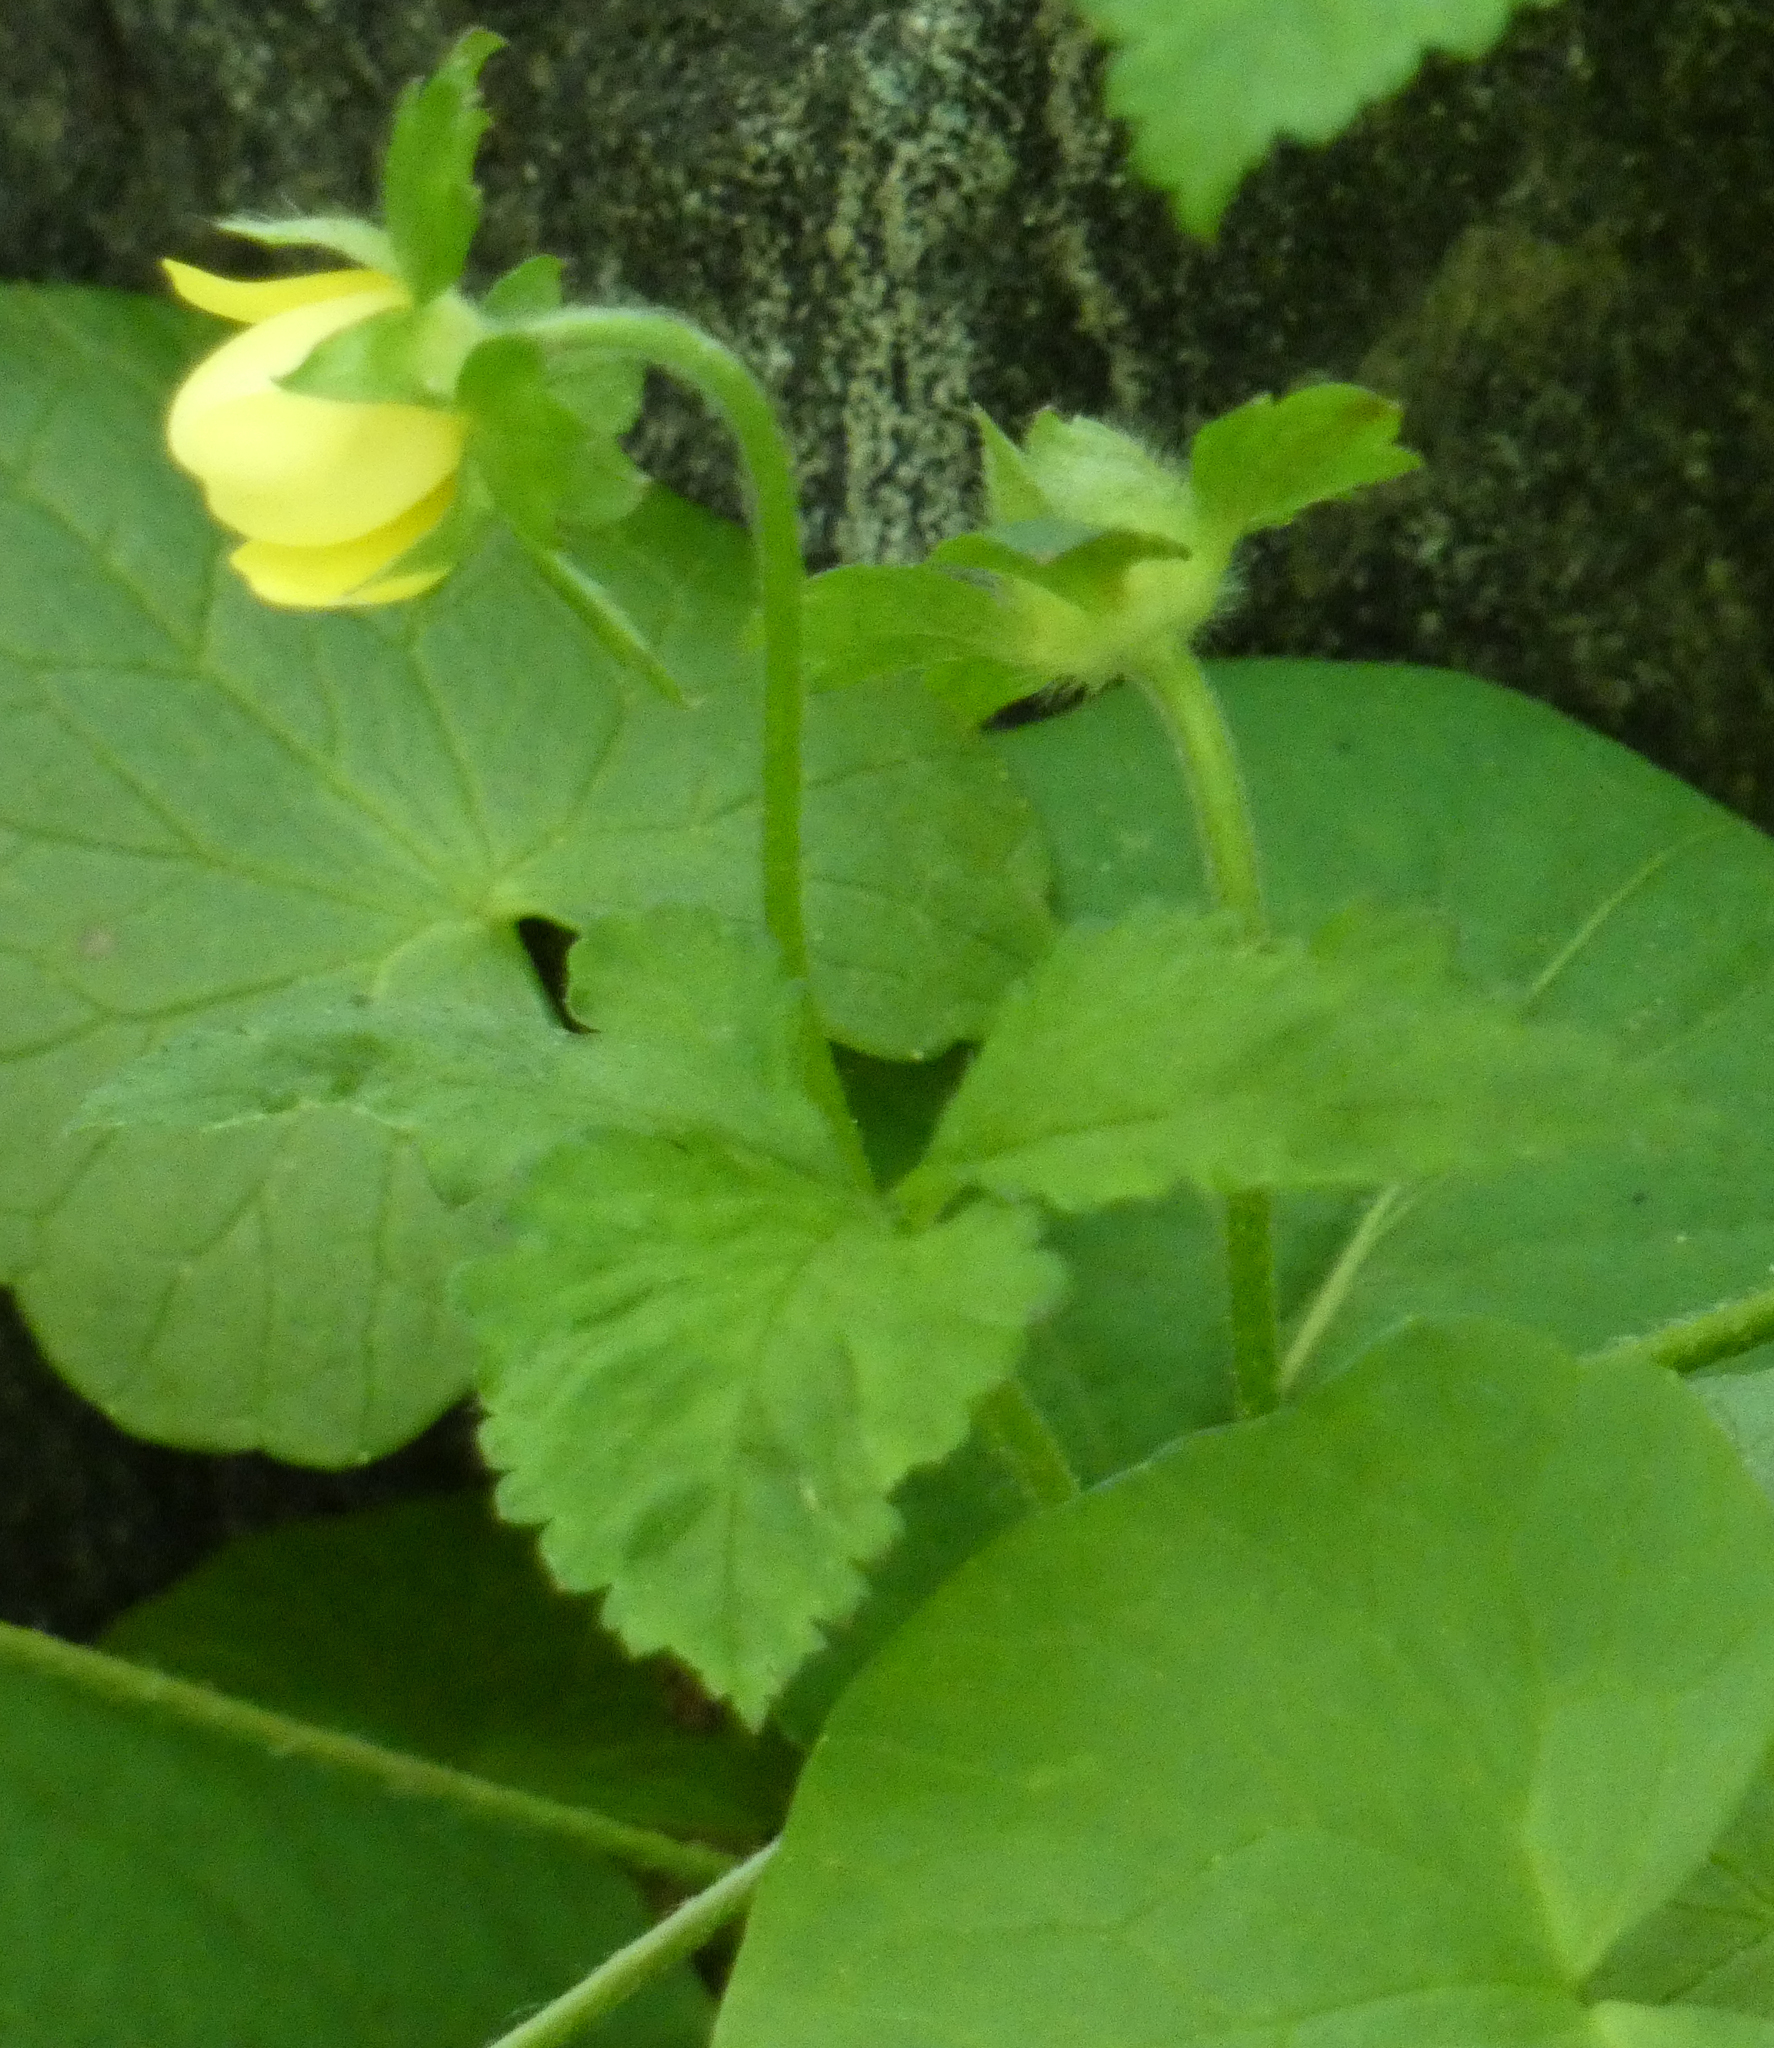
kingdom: Plantae
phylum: Tracheophyta
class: Magnoliopsida
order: Rosales
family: Rosaceae
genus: Potentilla
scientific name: Potentilla indica
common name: Yellow-flowered strawberry
